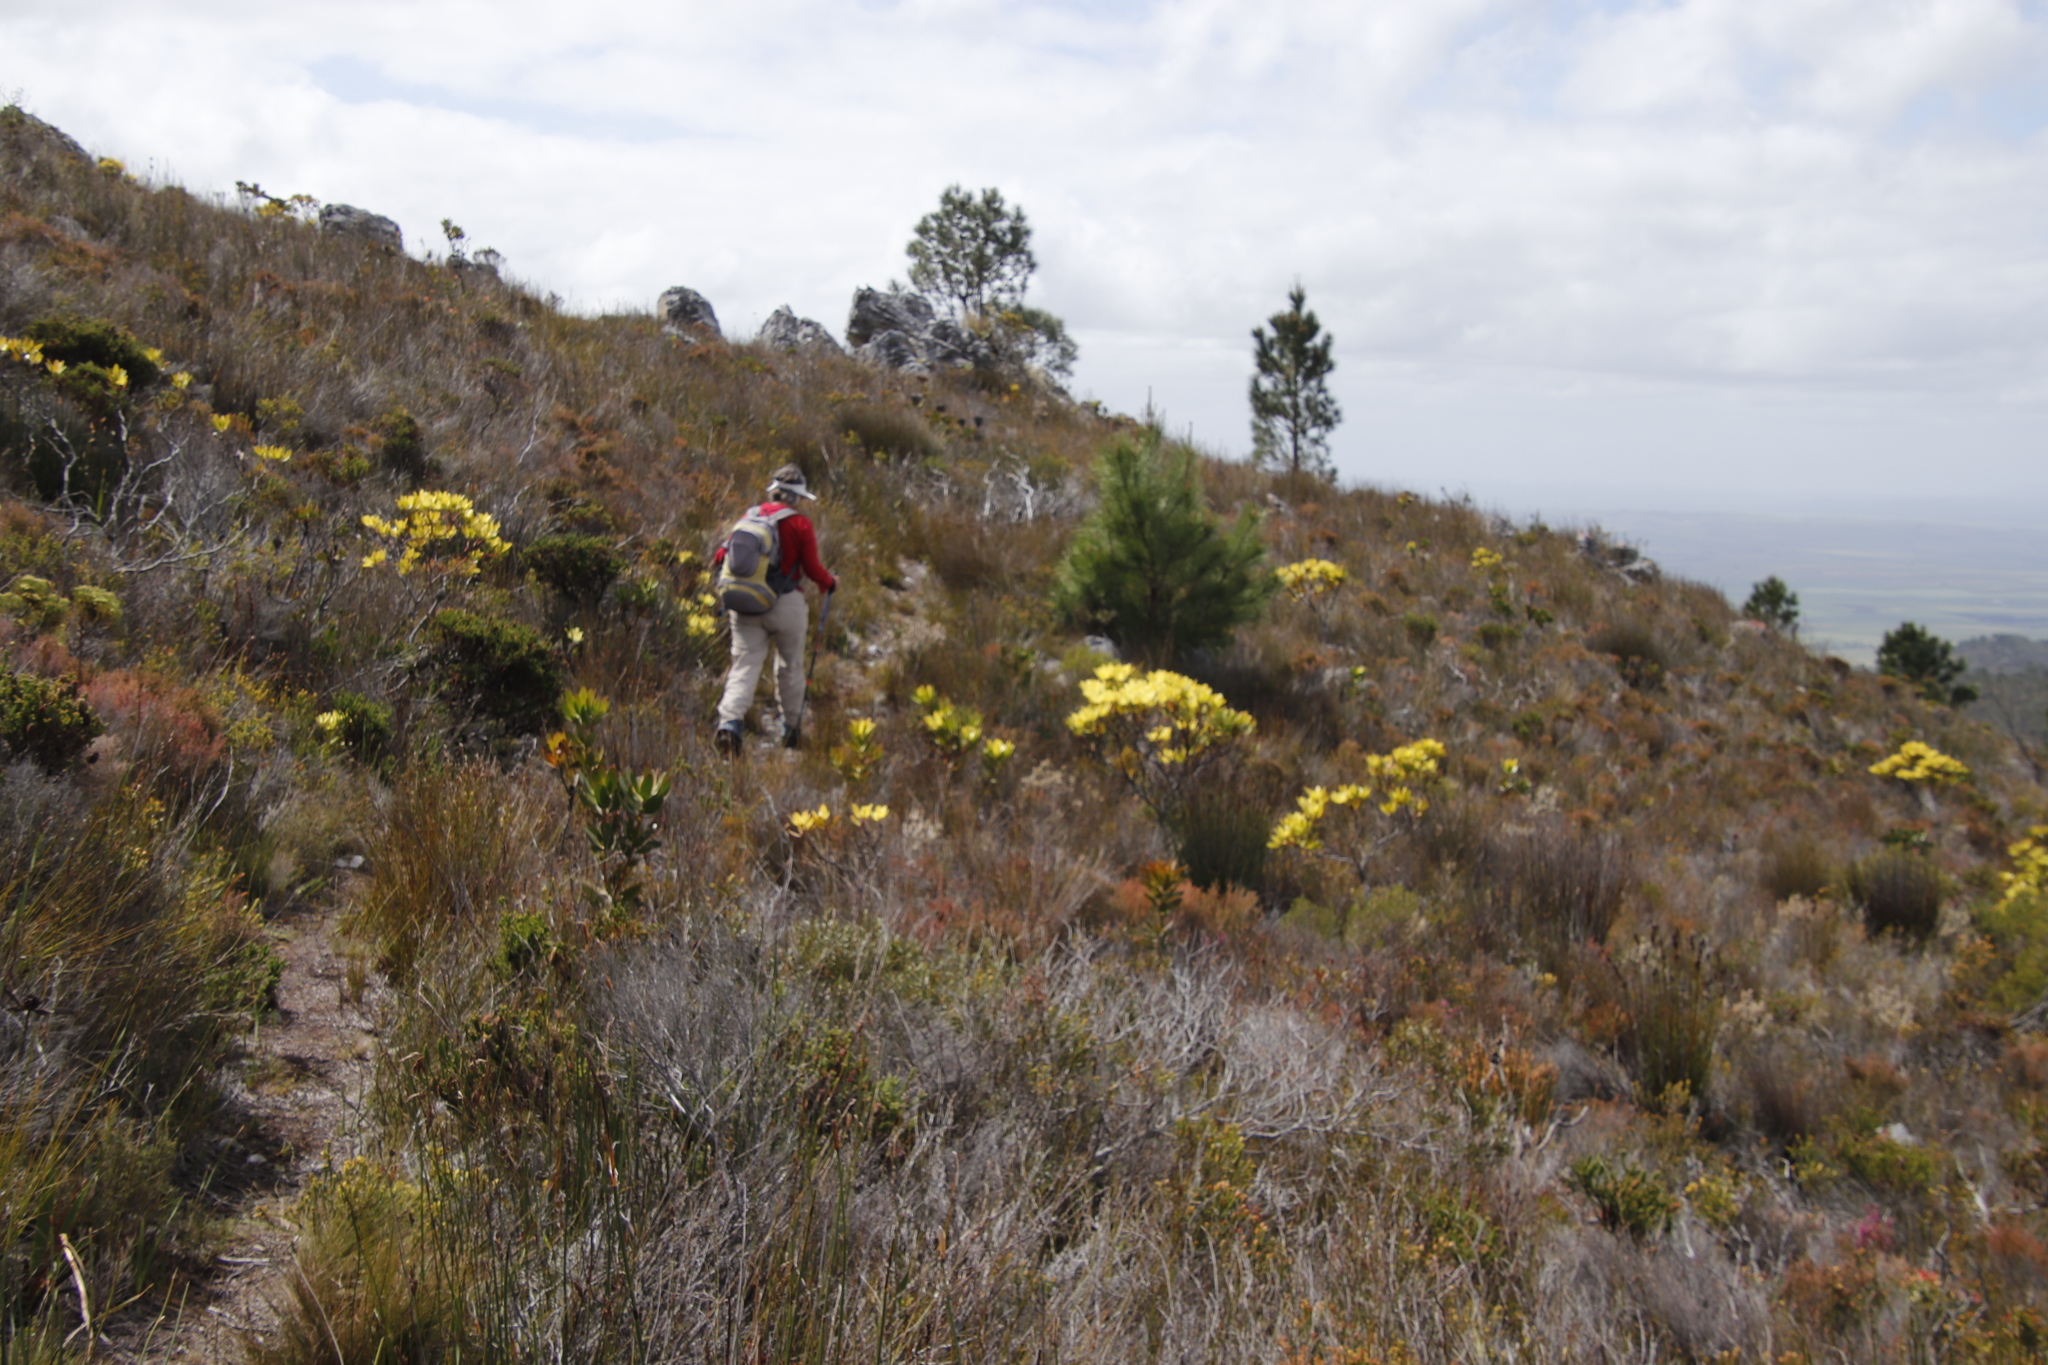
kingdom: Plantae
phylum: Tracheophyta
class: Magnoliopsida
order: Proteales
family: Proteaceae
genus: Leucadendron
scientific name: Leucadendron gandogeri
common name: Broad-leaf conebush
